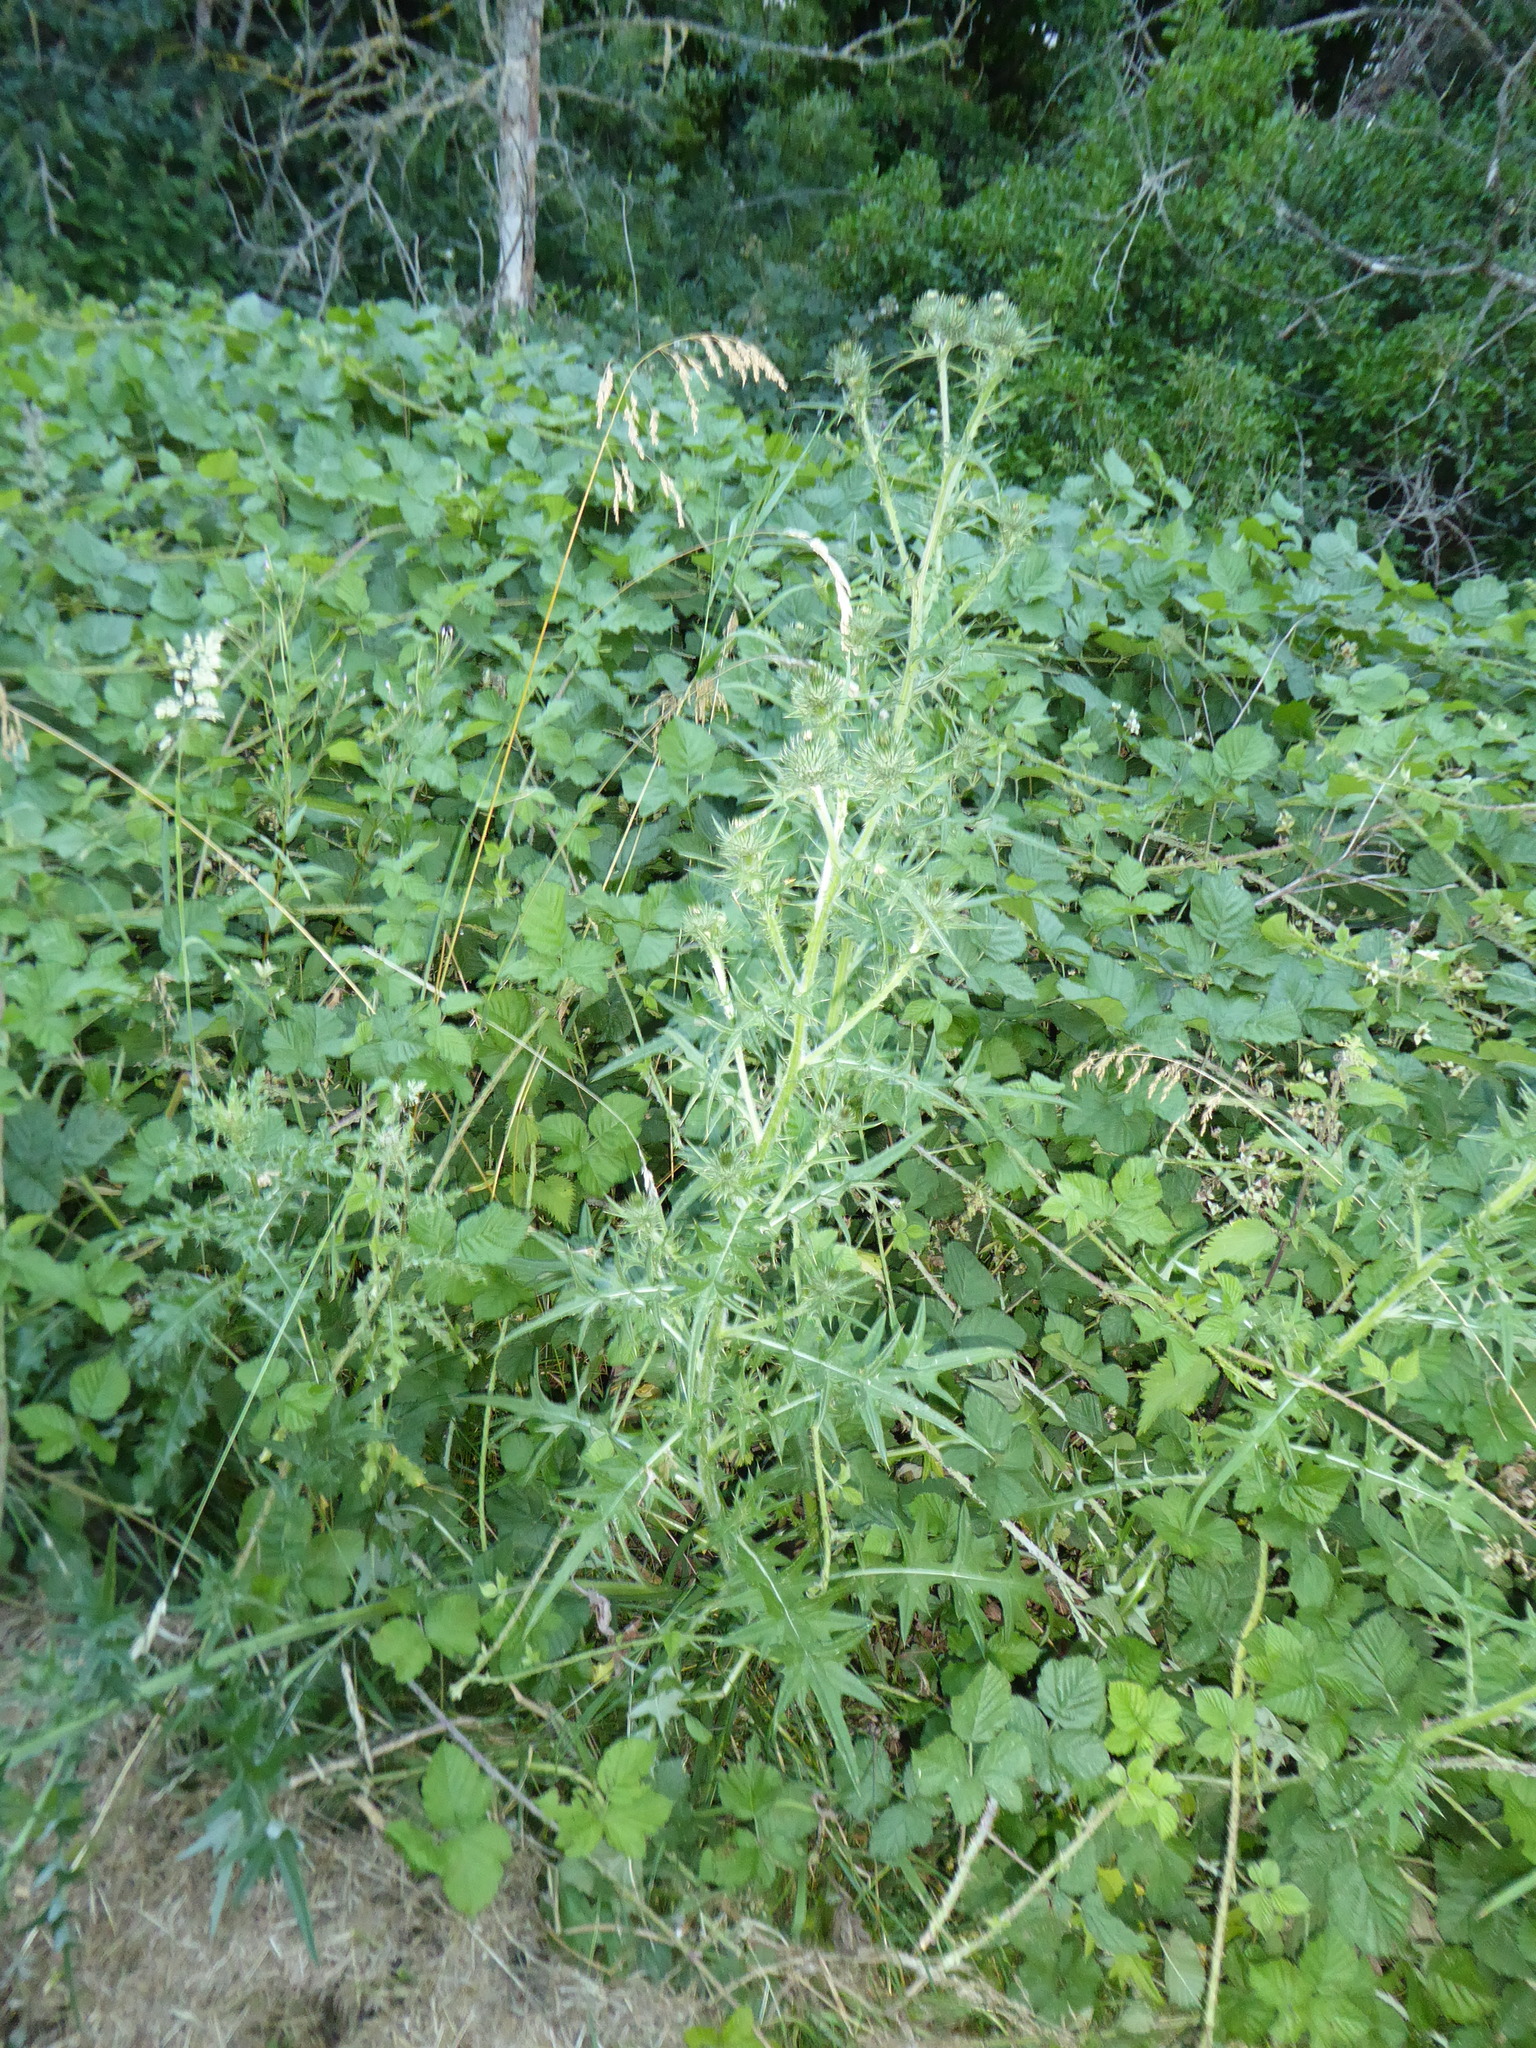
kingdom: Plantae
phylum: Tracheophyta
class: Magnoliopsida
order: Asterales
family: Asteraceae
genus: Cirsium
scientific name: Cirsium vulgare
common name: Bull thistle
